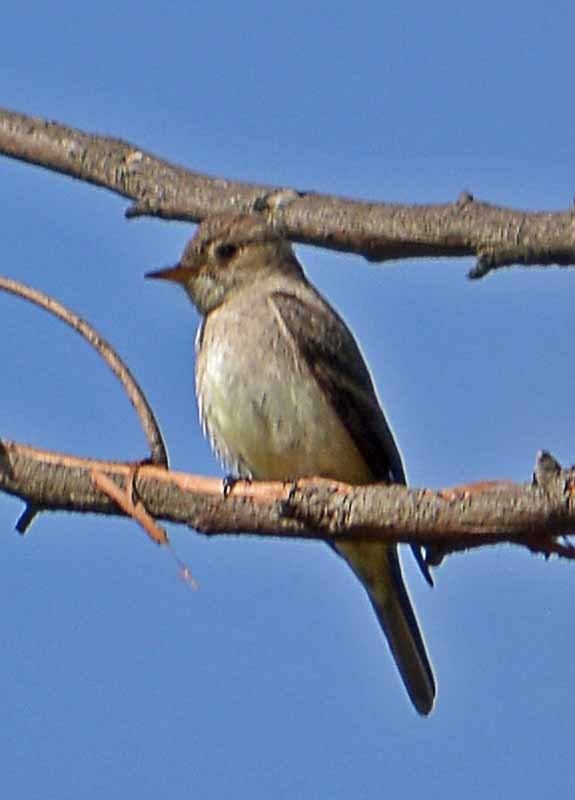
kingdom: Animalia
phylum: Chordata
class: Aves
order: Passeriformes
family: Tyrannidae
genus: Contopus
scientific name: Contopus sordidulus
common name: Western wood-pewee
